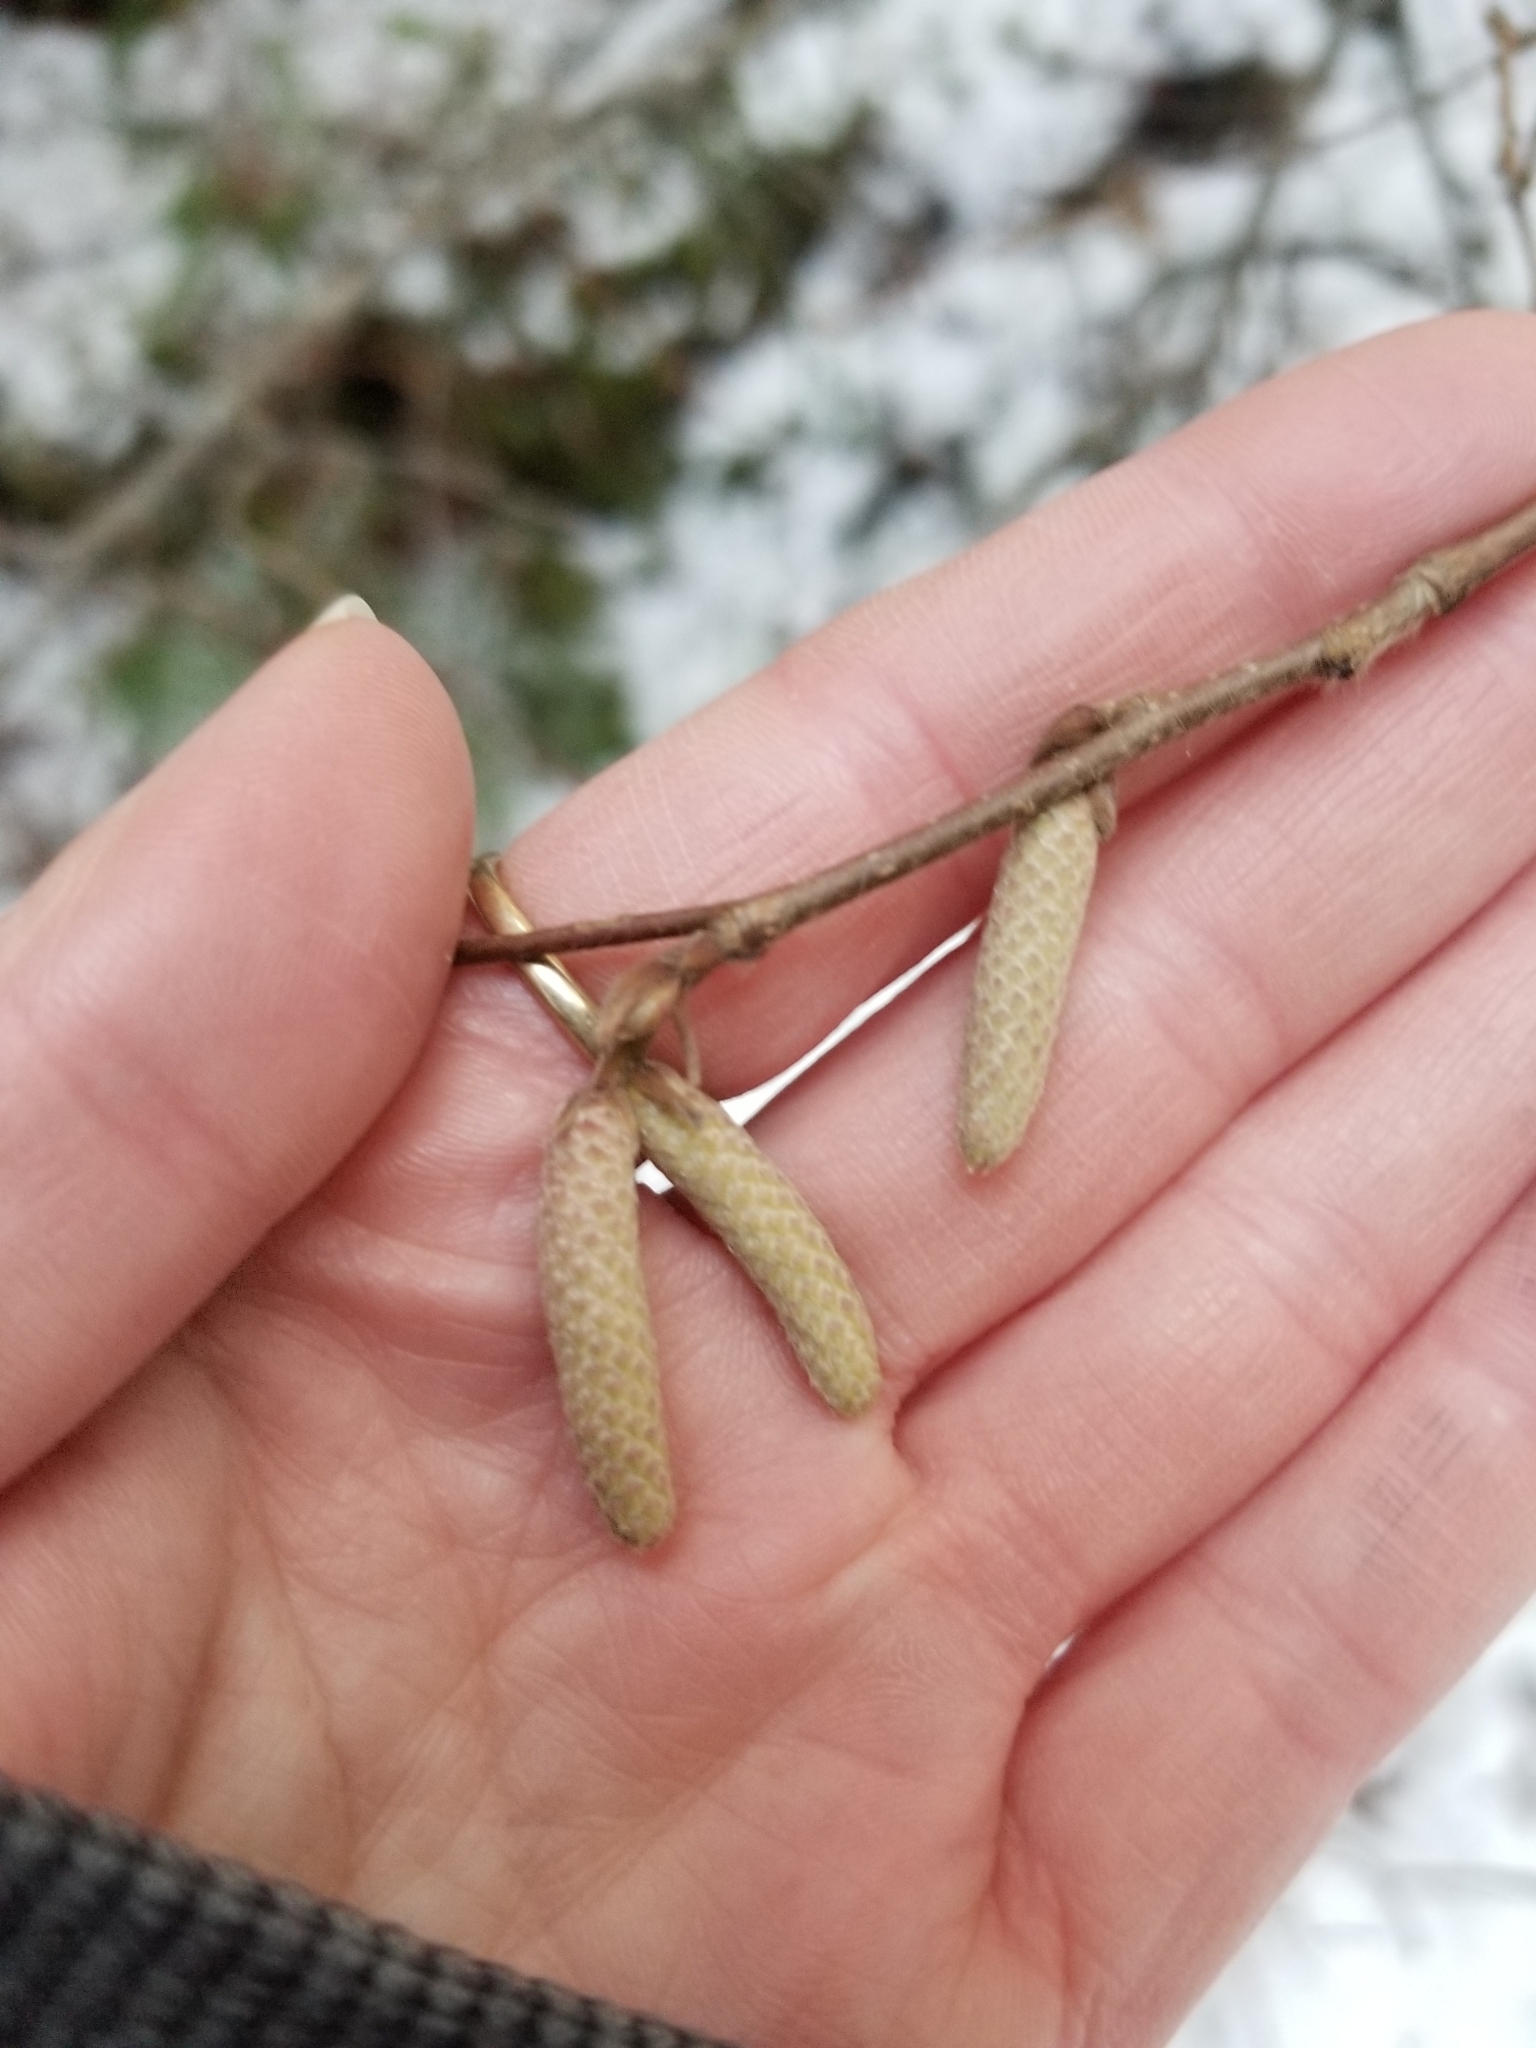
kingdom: Plantae
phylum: Tracheophyta
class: Magnoliopsida
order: Fagales
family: Betulaceae
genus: Corylus
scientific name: Corylus cornuta
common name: Beaked hazel
